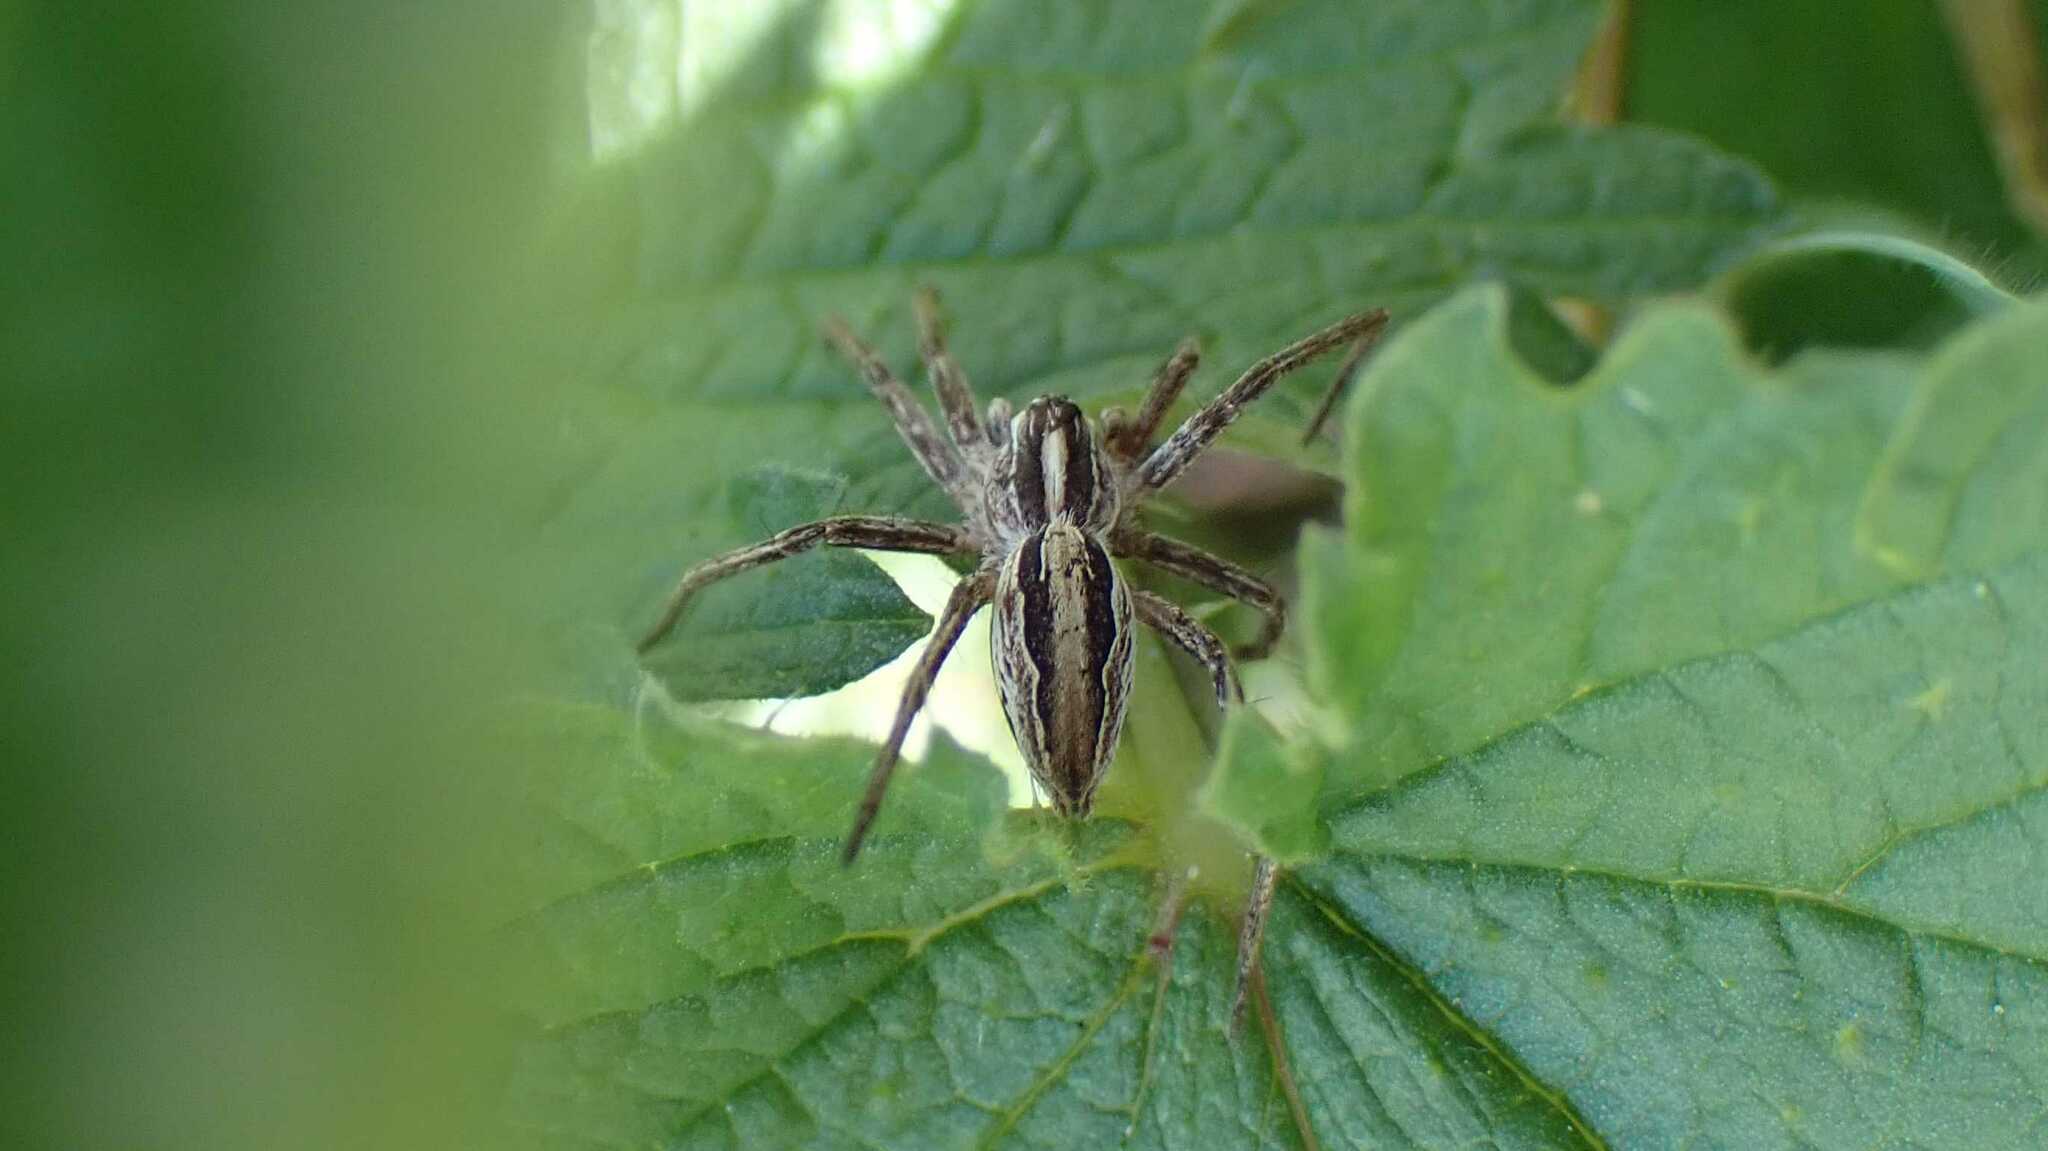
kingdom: Animalia
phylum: Arthropoda
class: Arachnida
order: Araneae
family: Pisauridae
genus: Pisaura
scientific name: Pisaura mirabilis
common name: Tent spider
